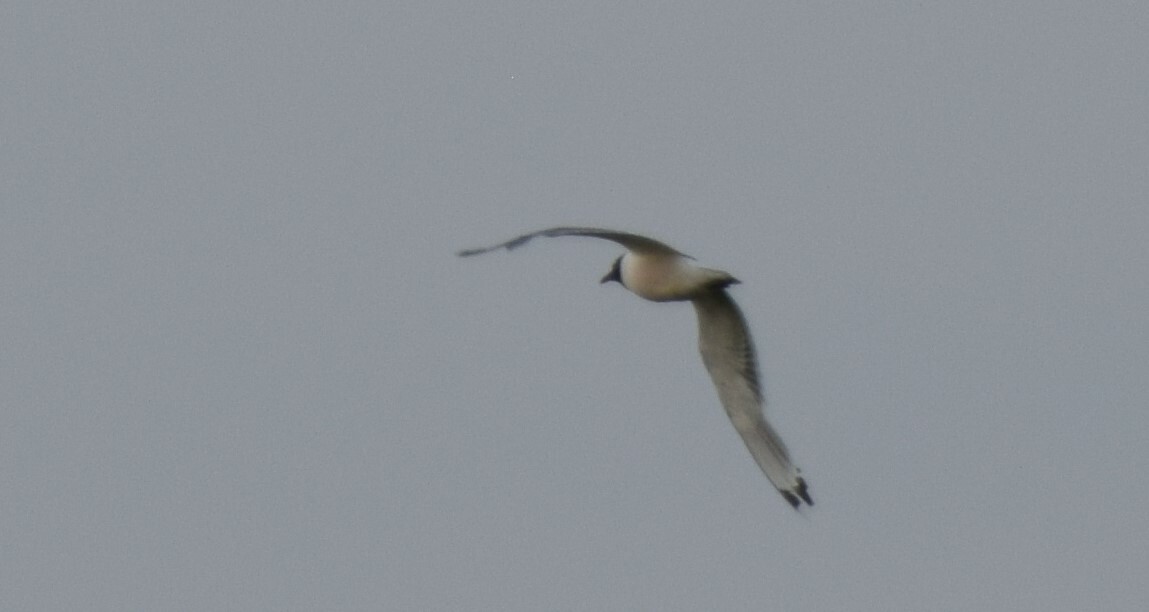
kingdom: Animalia
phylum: Chordata
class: Aves
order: Charadriiformes
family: Laridae
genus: Leucophaeus
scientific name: Leucophaeus pipixcan
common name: Franklin's gull
